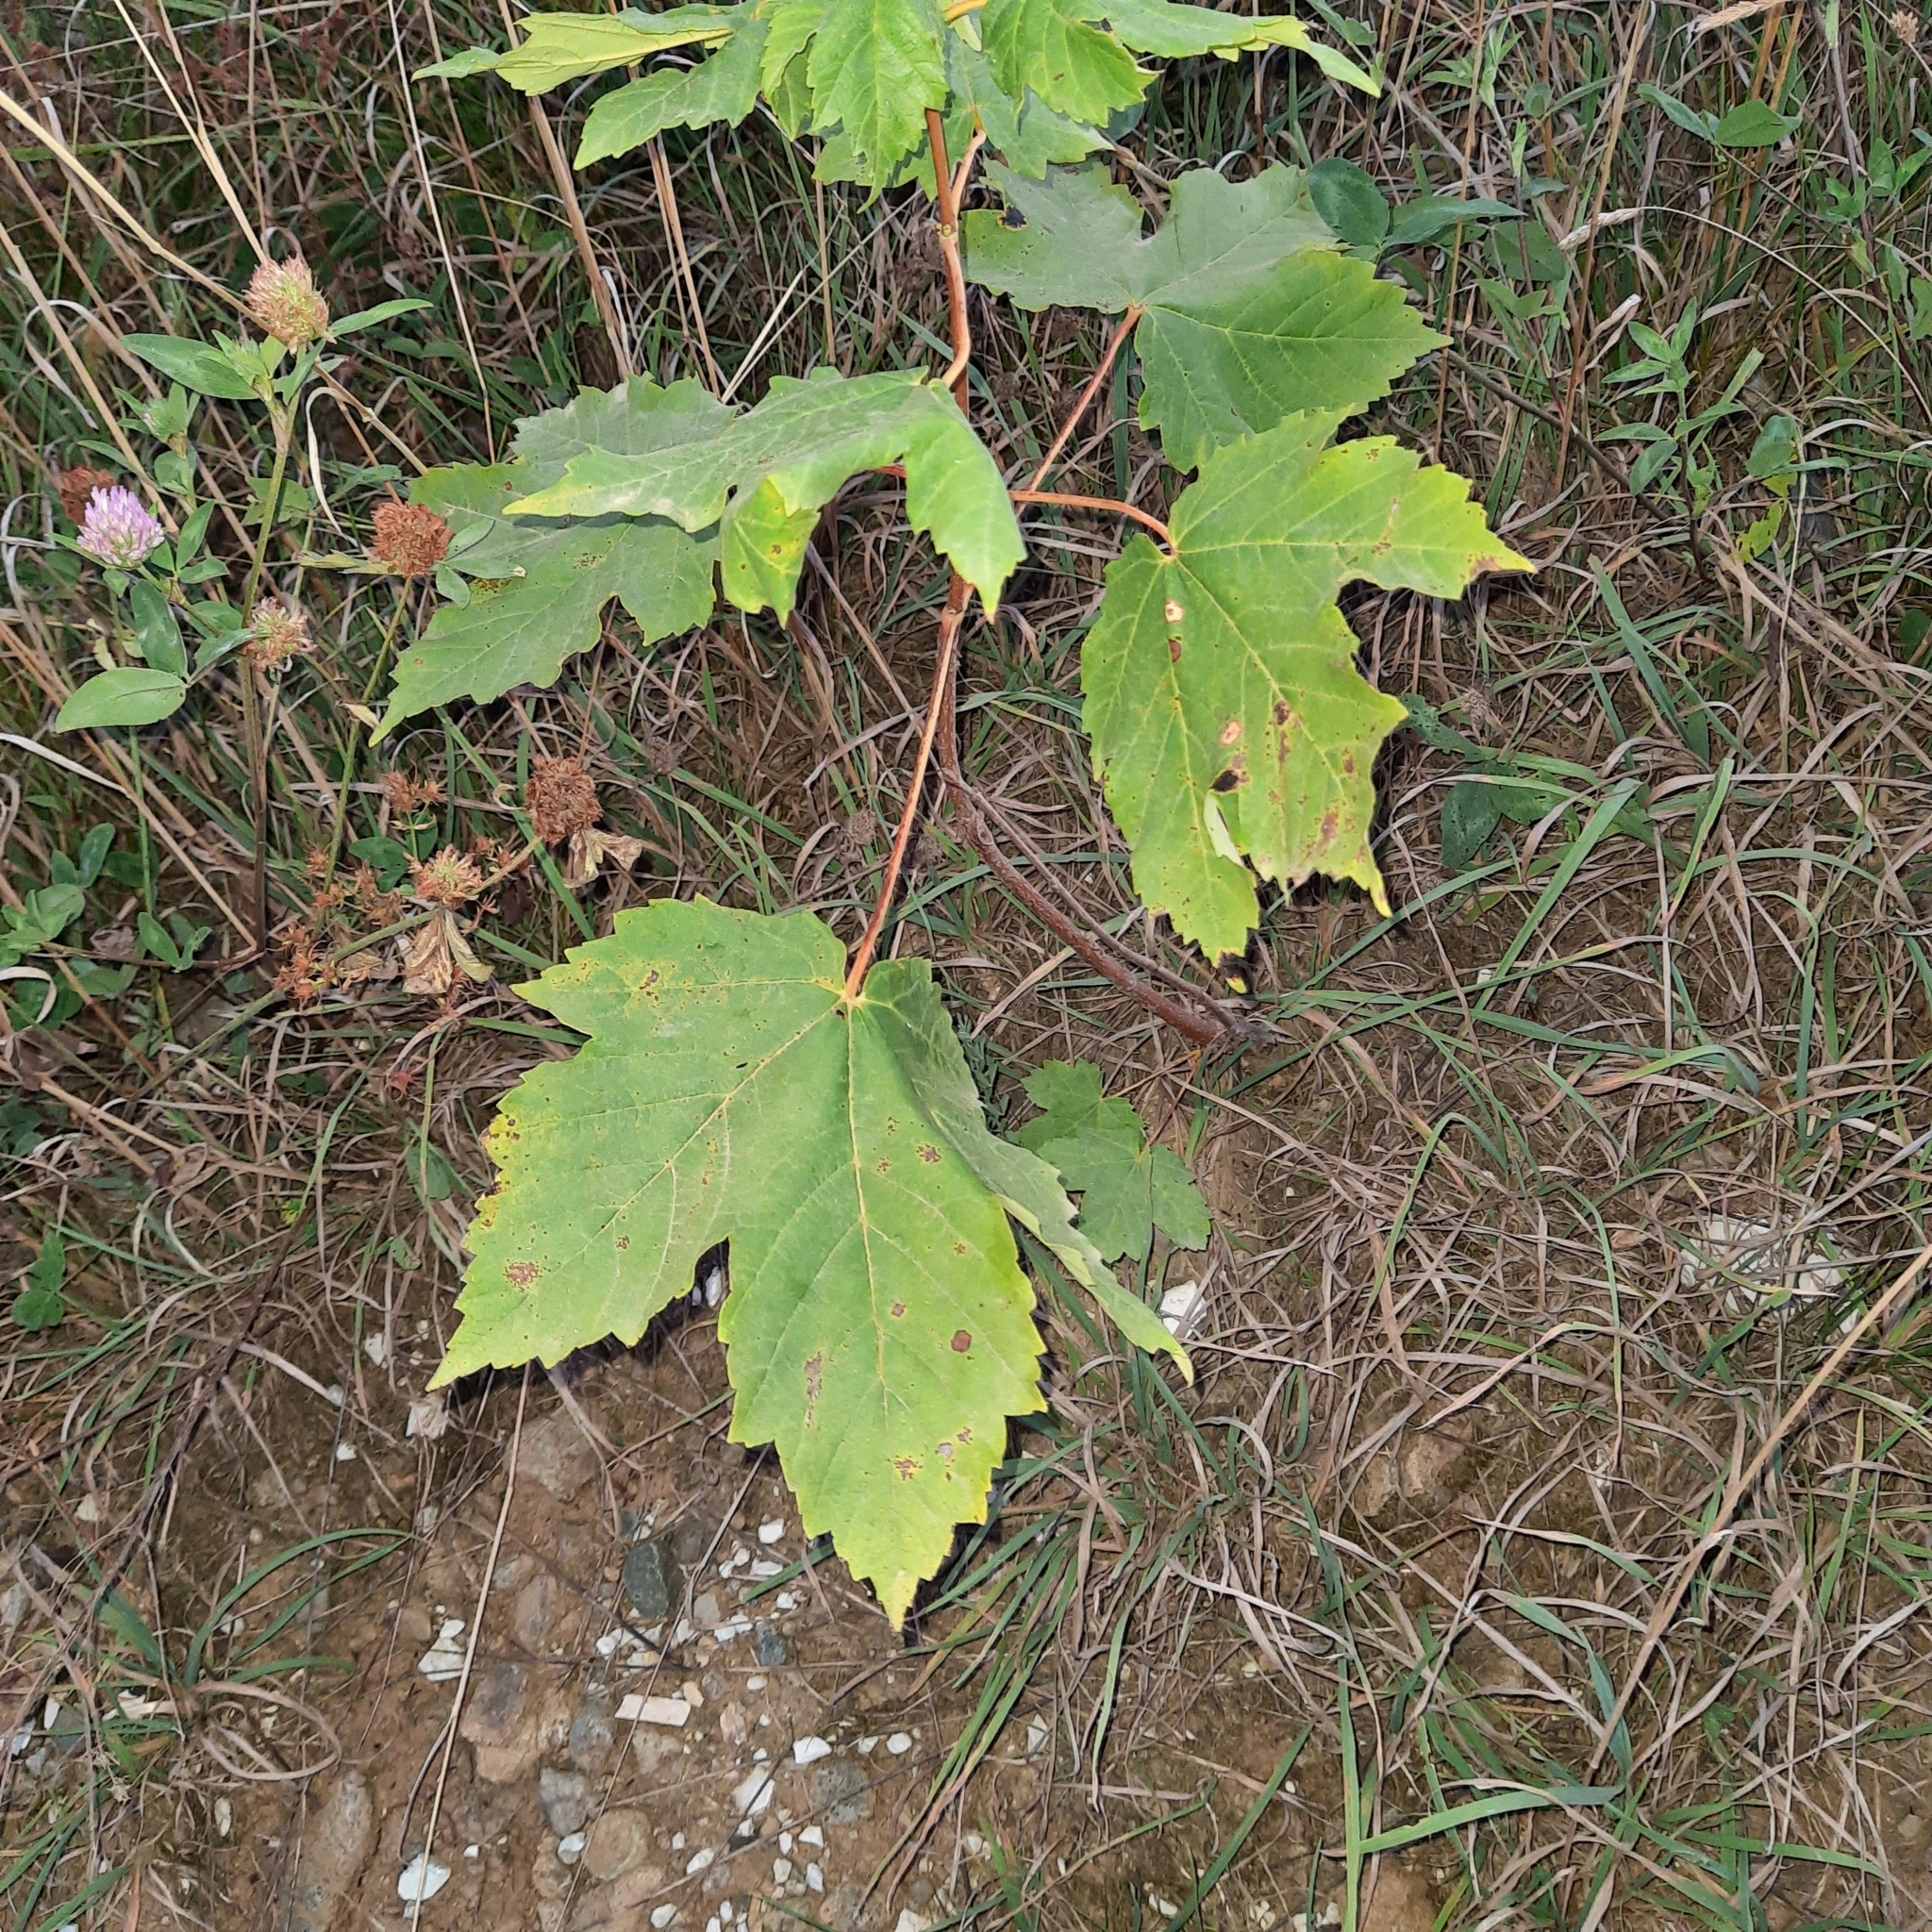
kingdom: Plantae
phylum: Tracheophyta
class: Magnoliopsida
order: Sapindales
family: Sapindaceae
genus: Acer
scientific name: Acer pseudoplatanus
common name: Sycamore
